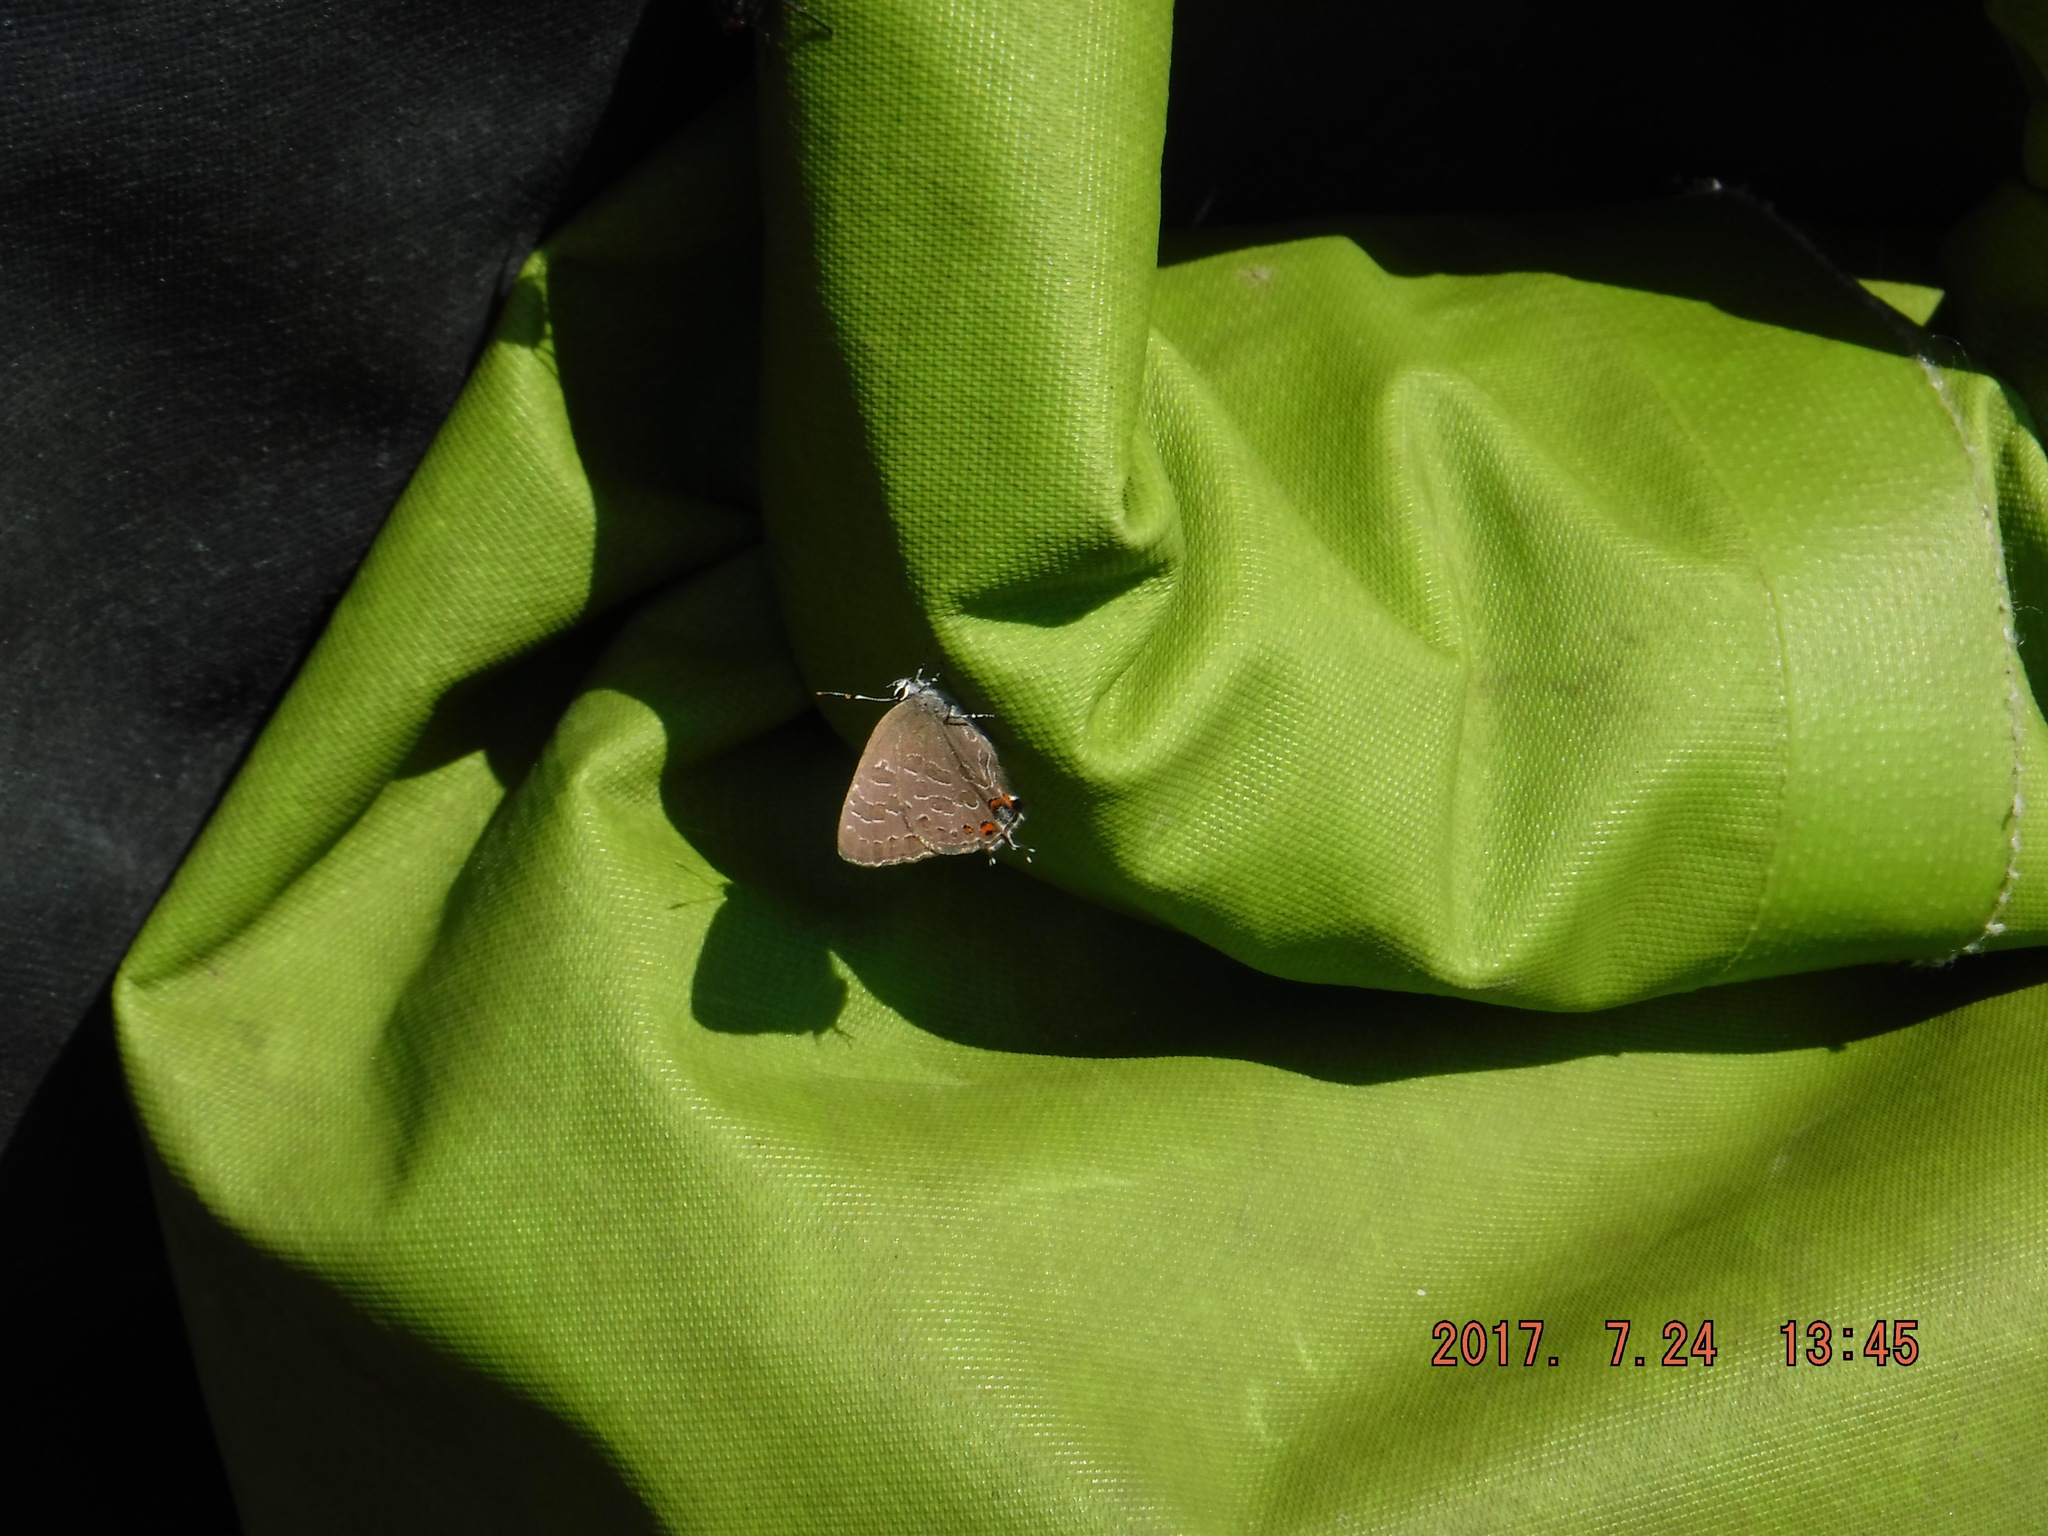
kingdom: Animalia
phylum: Arthropoda
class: Insecta
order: Lepidoptera
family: Lycaenidae
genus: Satyrium
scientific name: Satyrium liparops
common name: Striped hairstreak
